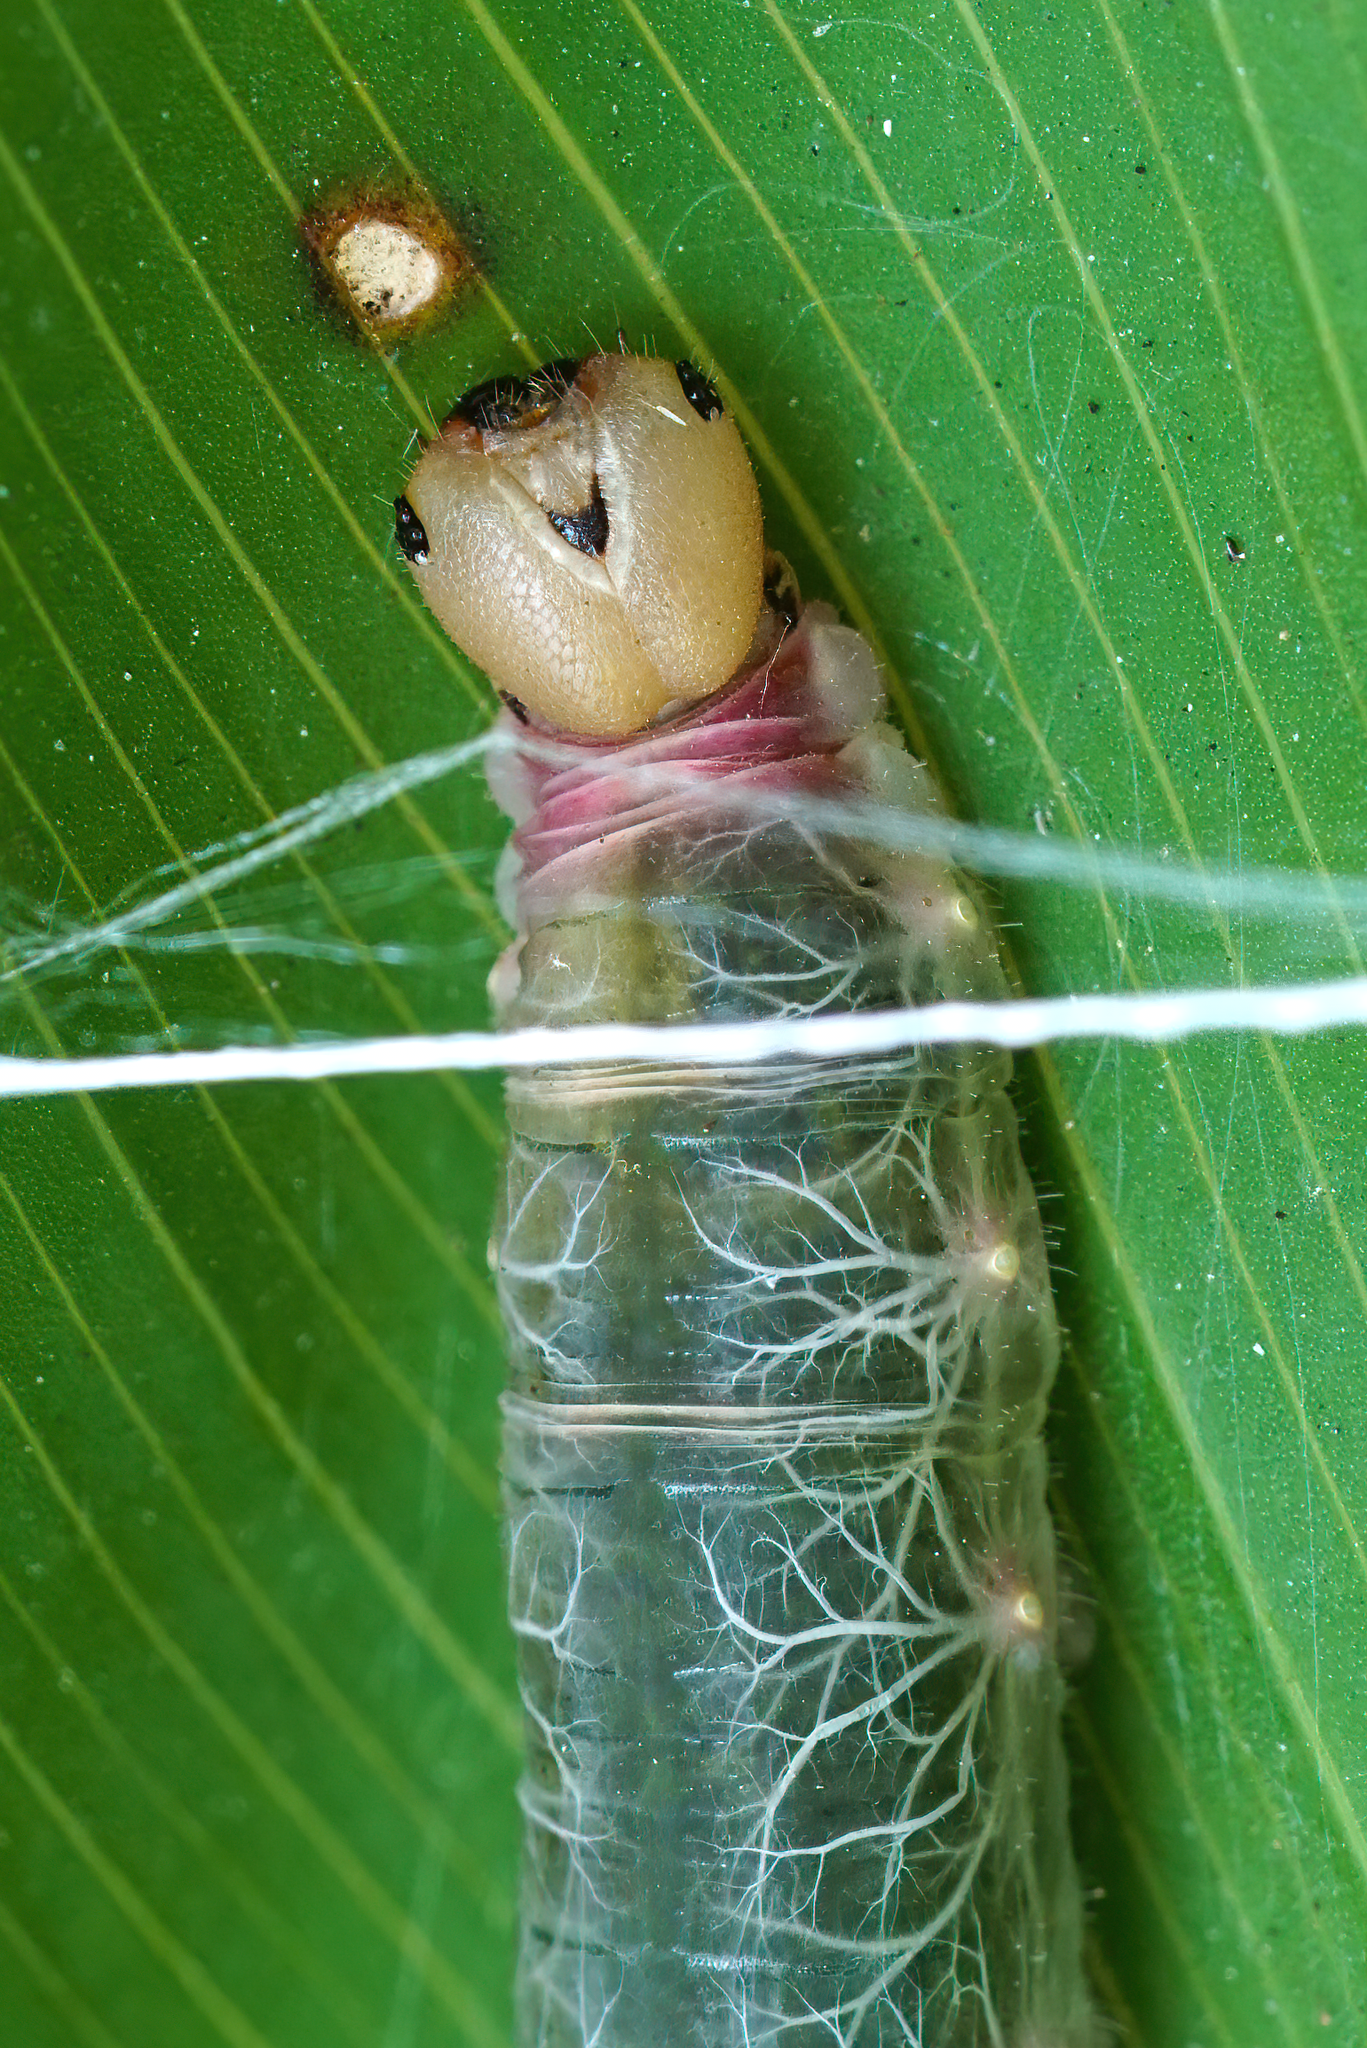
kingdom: Animalia
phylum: Arthropoda
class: Insecta
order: Lepidoptera
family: Hesperiidae
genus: Calpodes
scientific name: Calpodes ethlius
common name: Brazilian skipper
